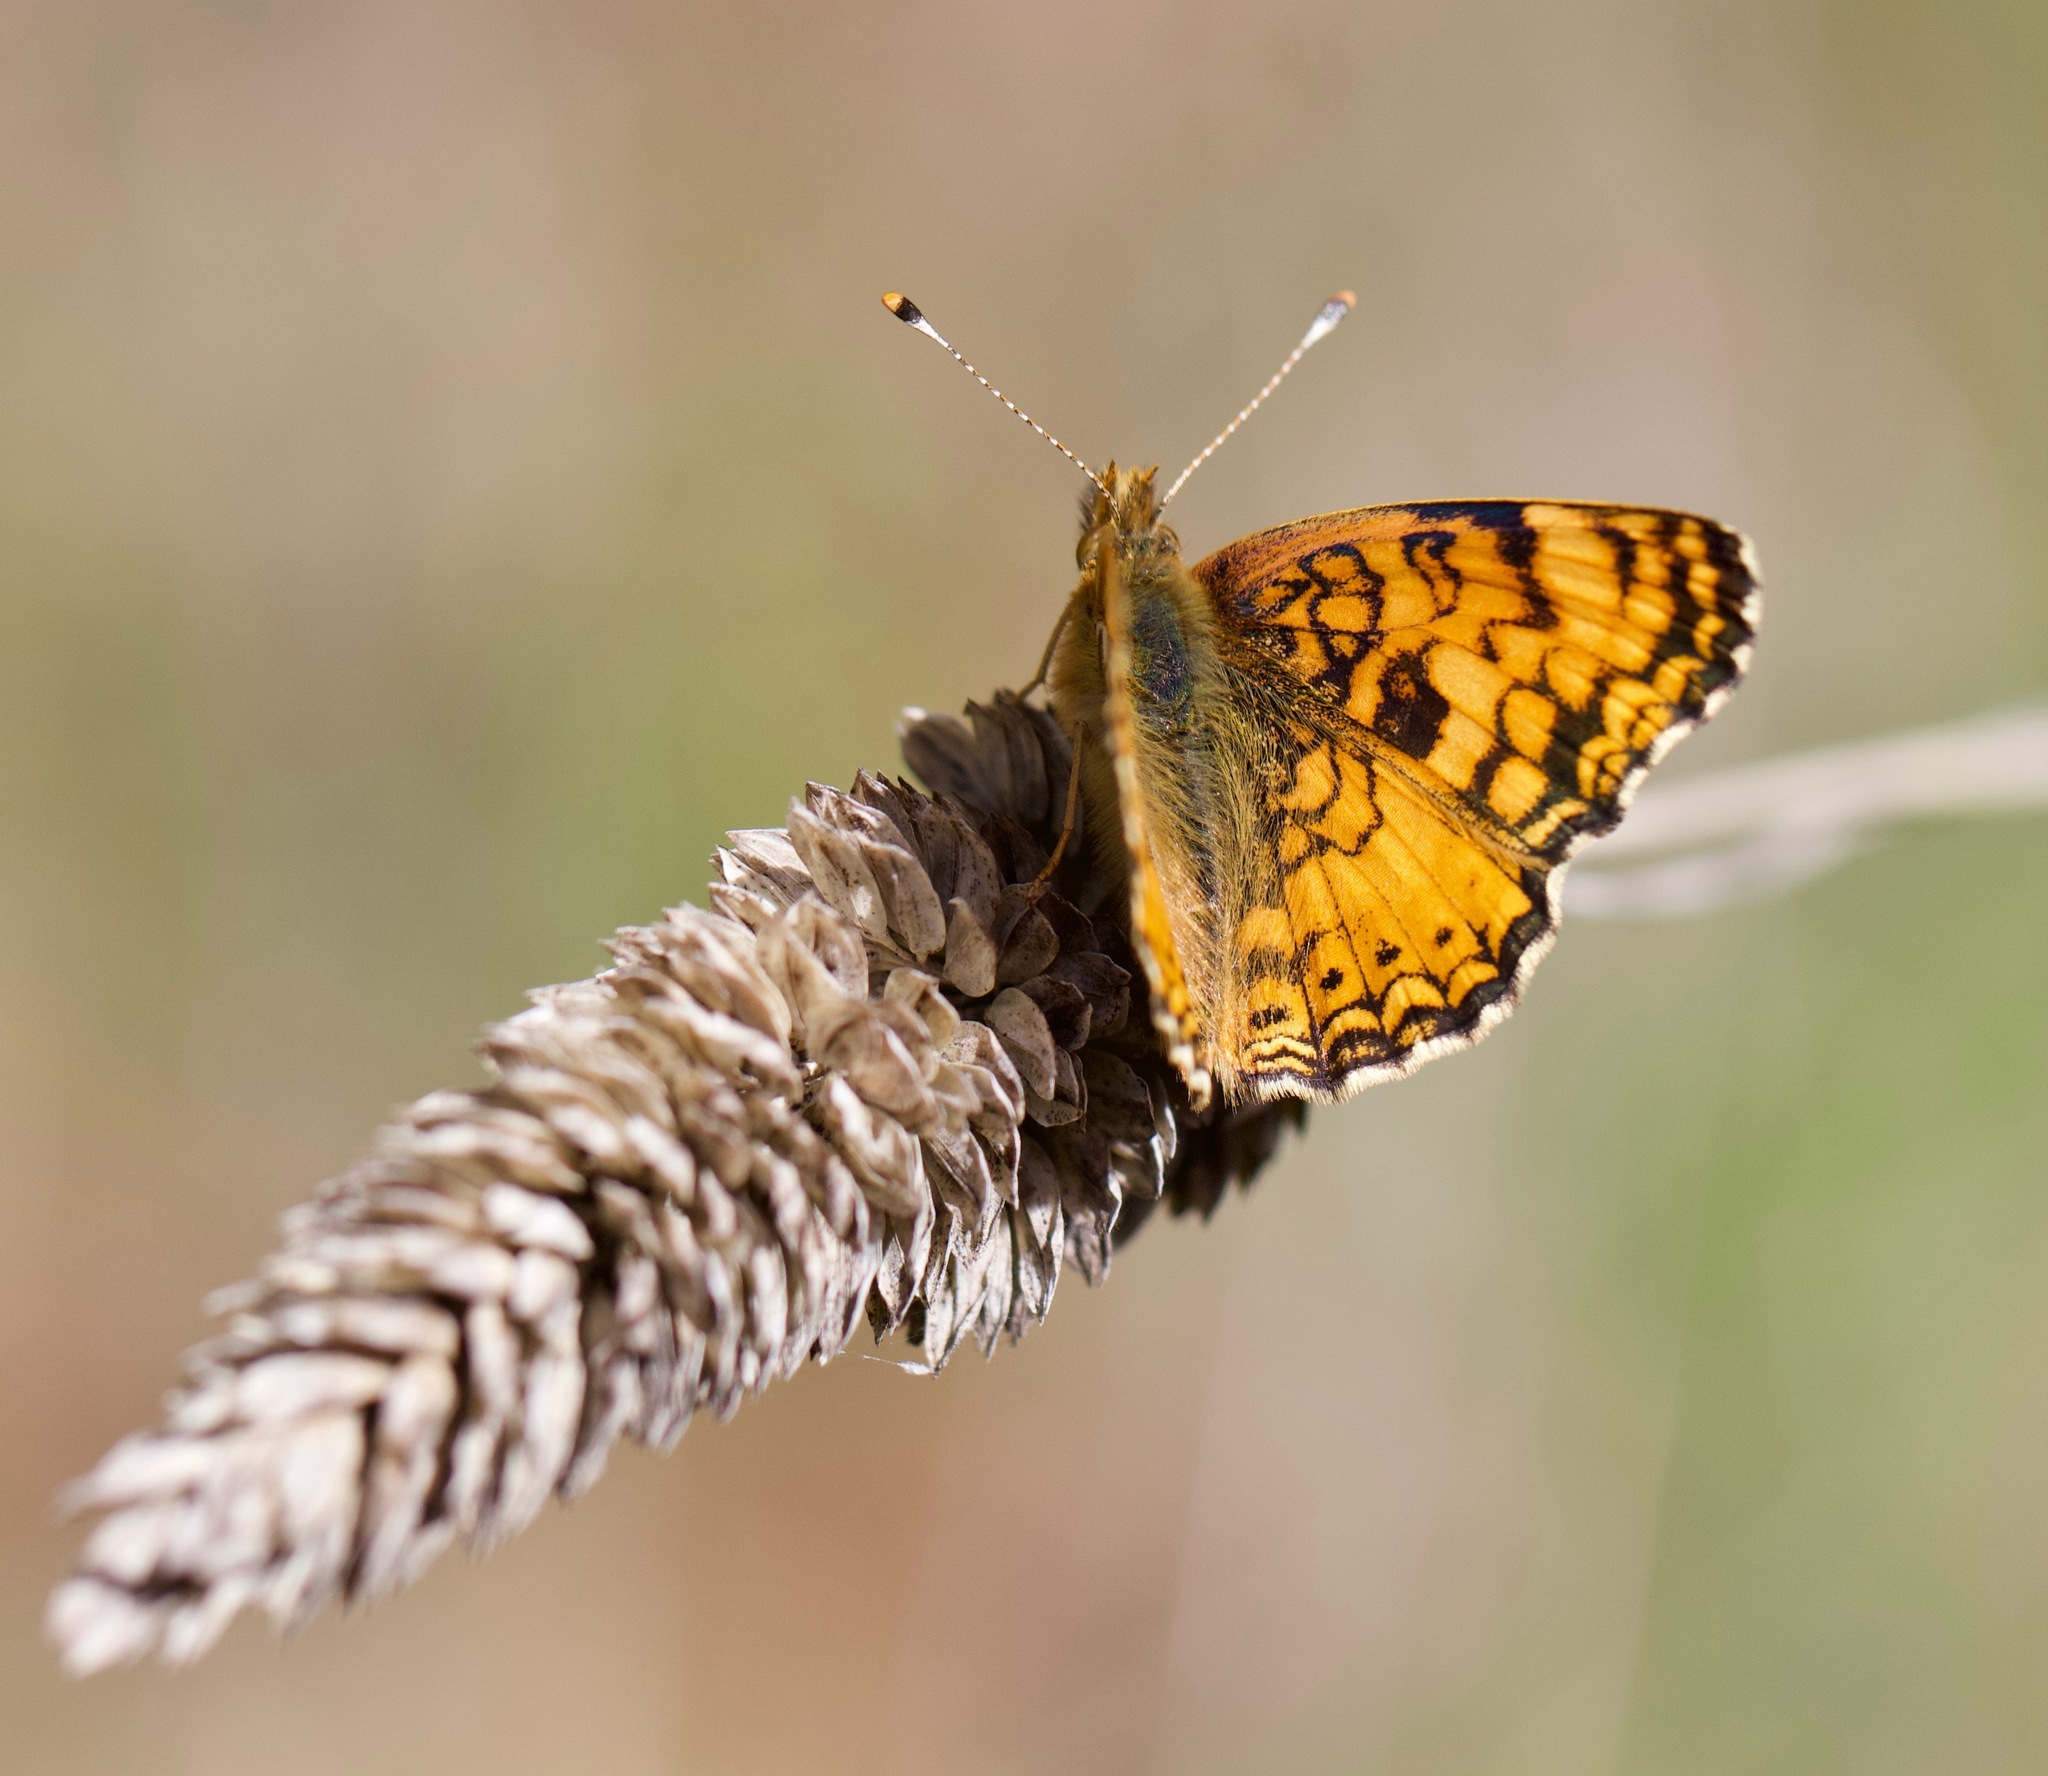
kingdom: Animalia
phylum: Arthropoda
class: Insecta
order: Lepidoptera
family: Nymphalidae
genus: Eresia
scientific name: Eresia aveyrona
